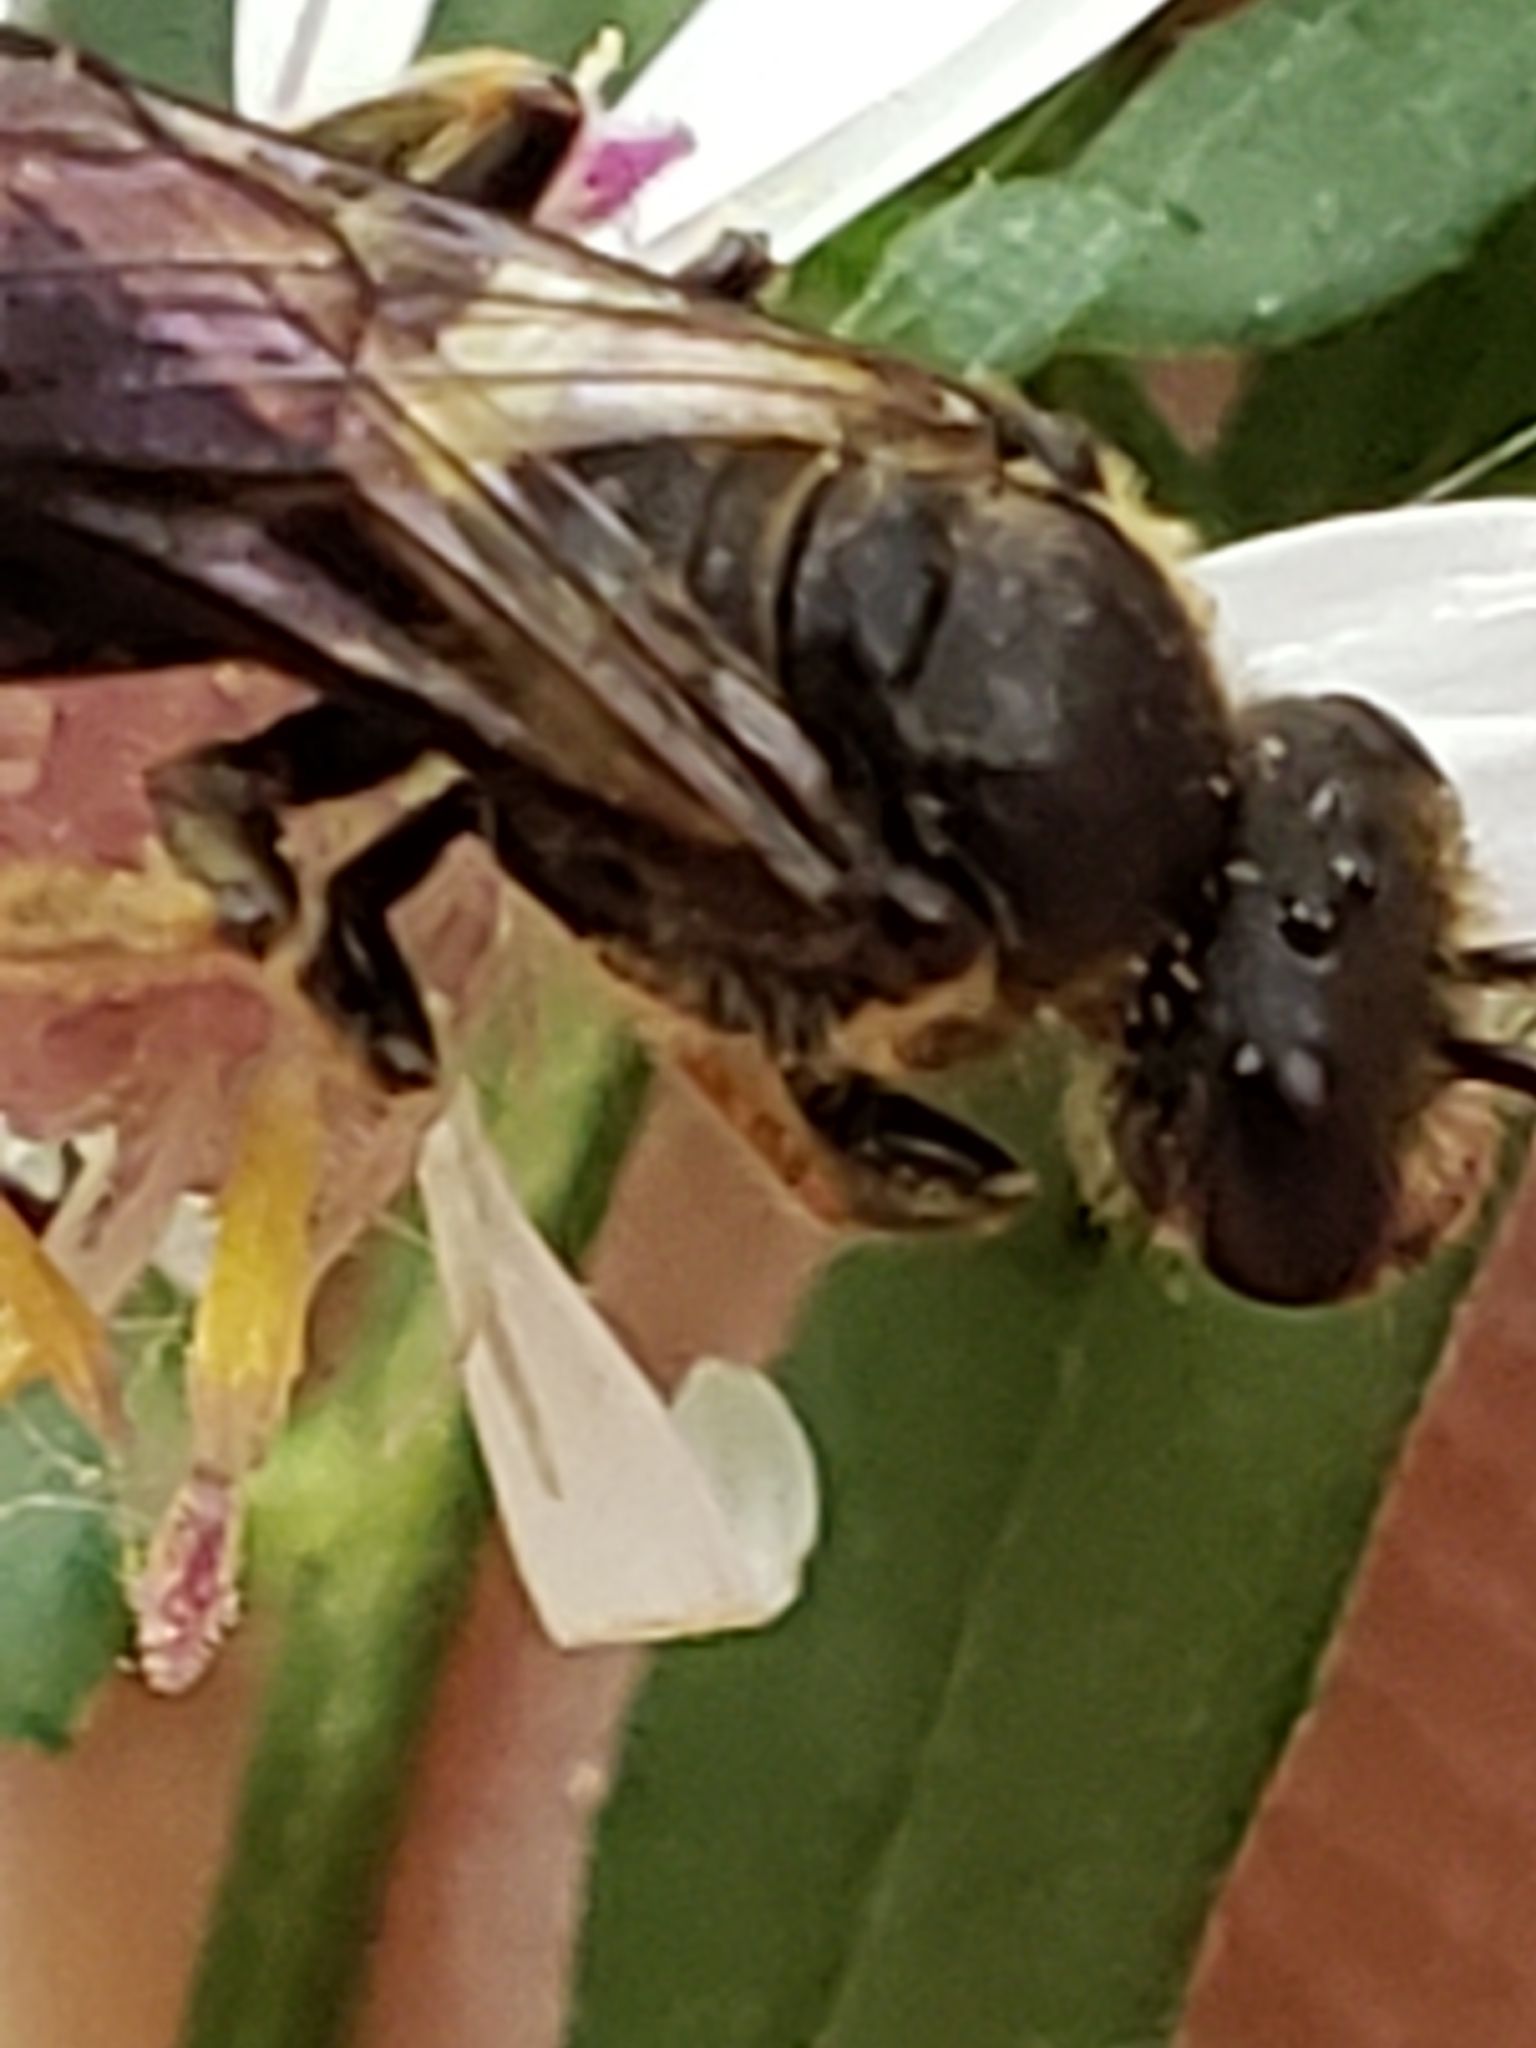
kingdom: Animalia
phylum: Arthropoda
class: Insecta
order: Hymenoptera
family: Halictidae
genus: Lasioglossum
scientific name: Lasioglossum fuscipenne
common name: Brown-winged sweat bee
